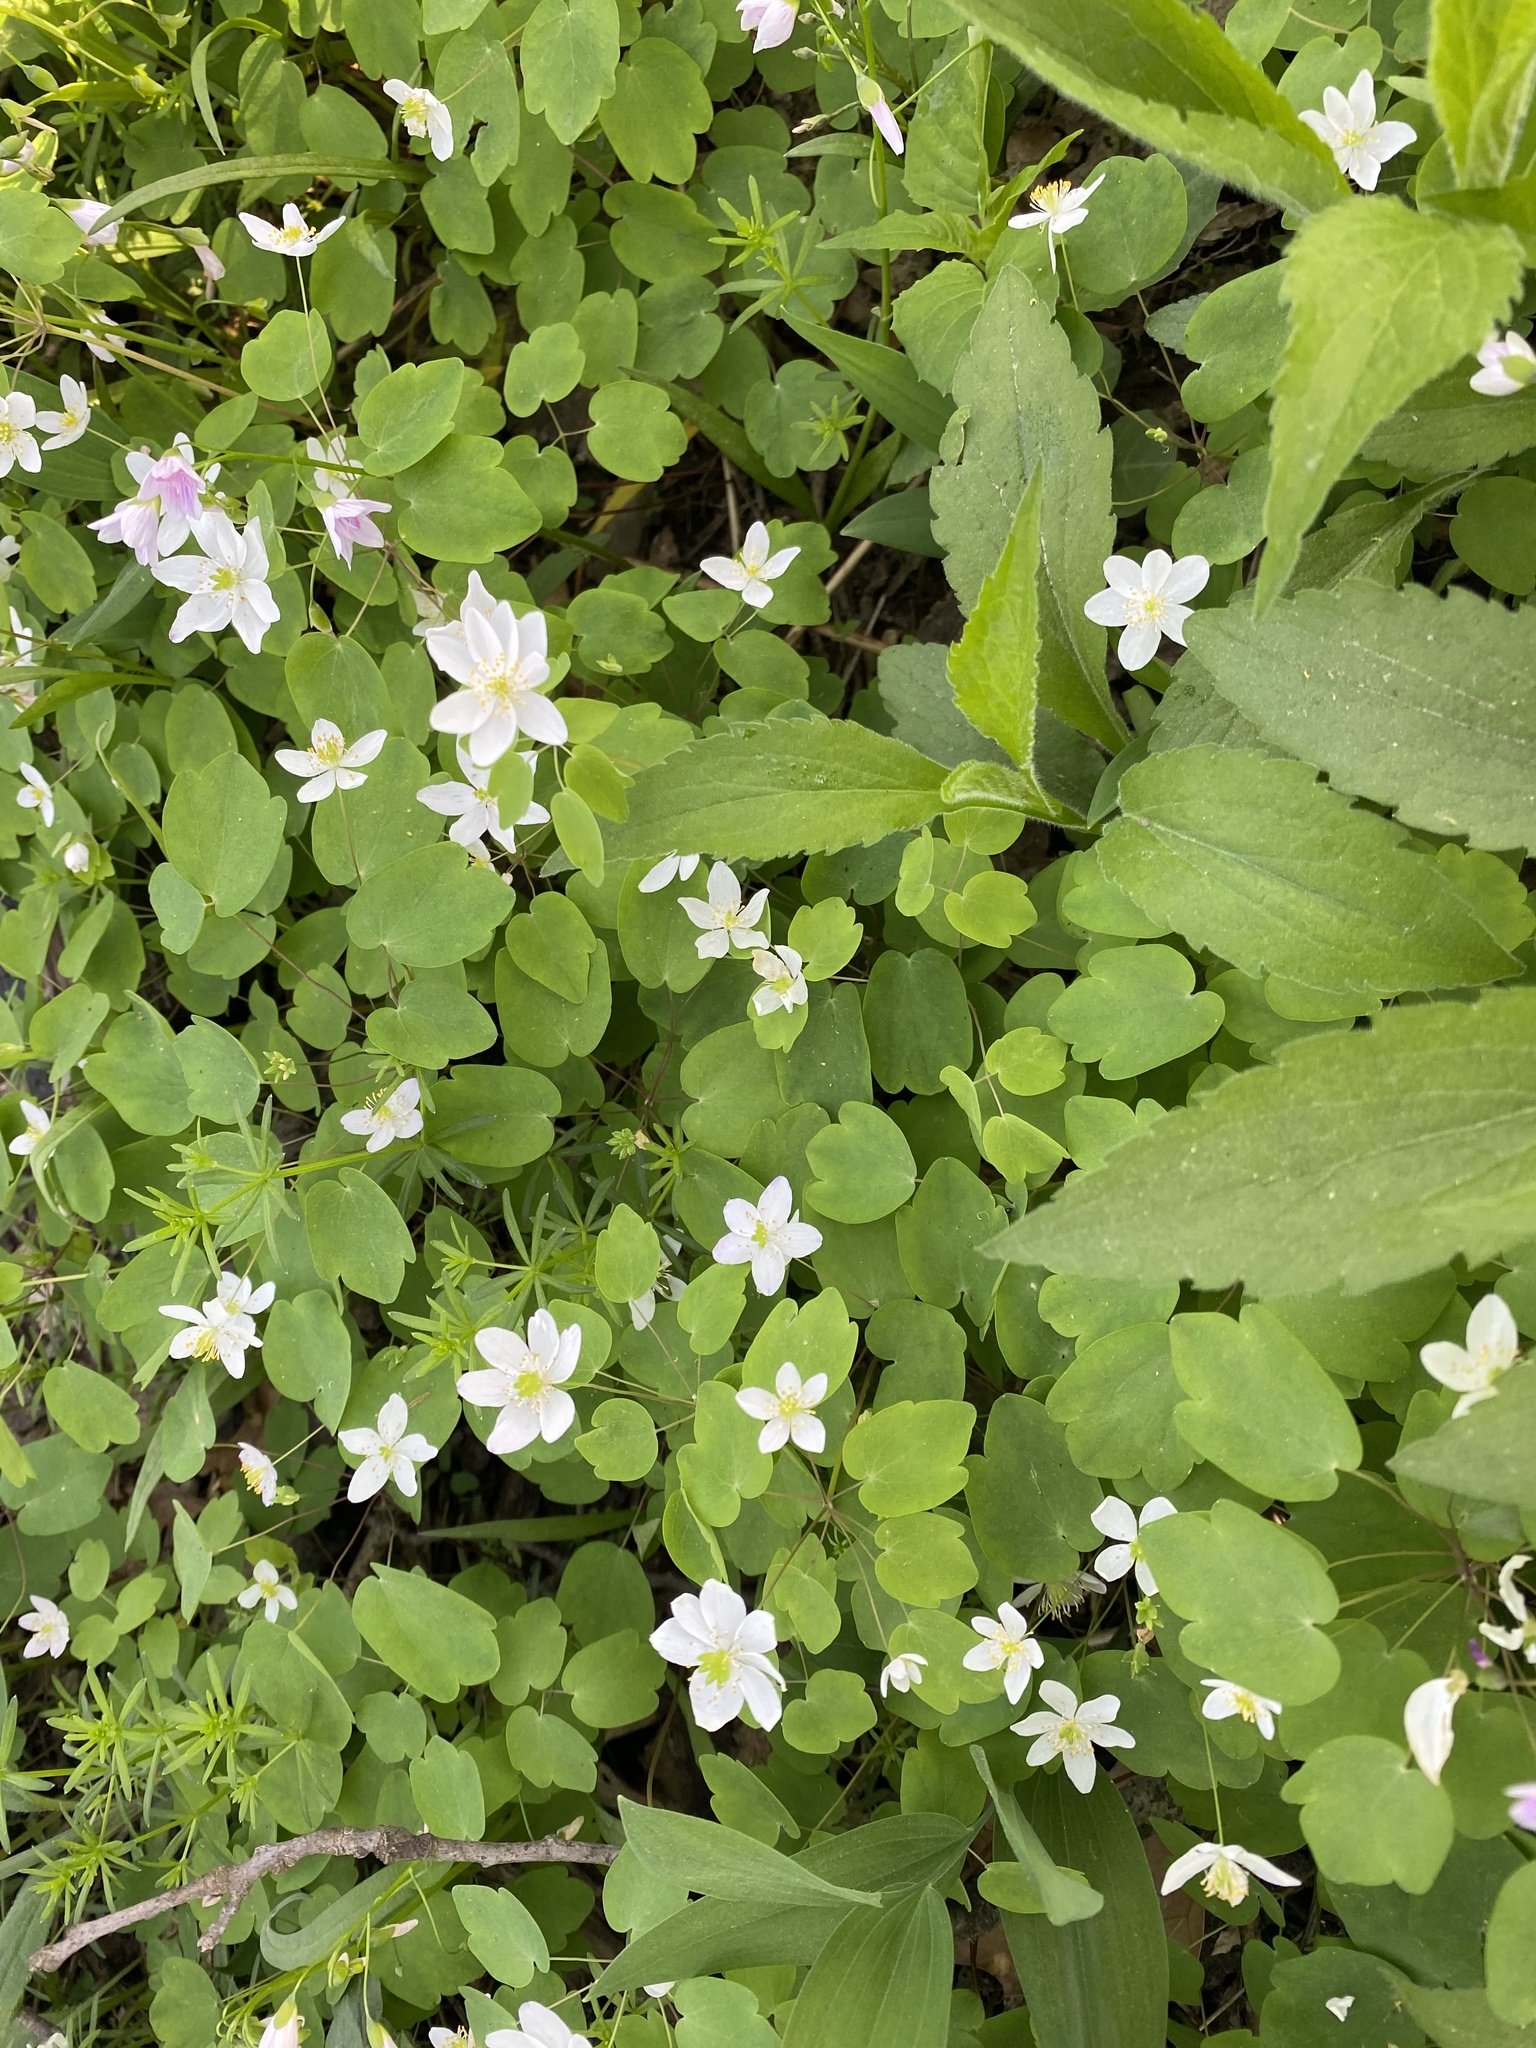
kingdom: Plantae
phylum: Tracheophyta
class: Magnoliopsida
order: Ranunculales
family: Ranunculaceae
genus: Thalictrum
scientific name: Thalictrum thalictroides
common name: Rue-anemone
